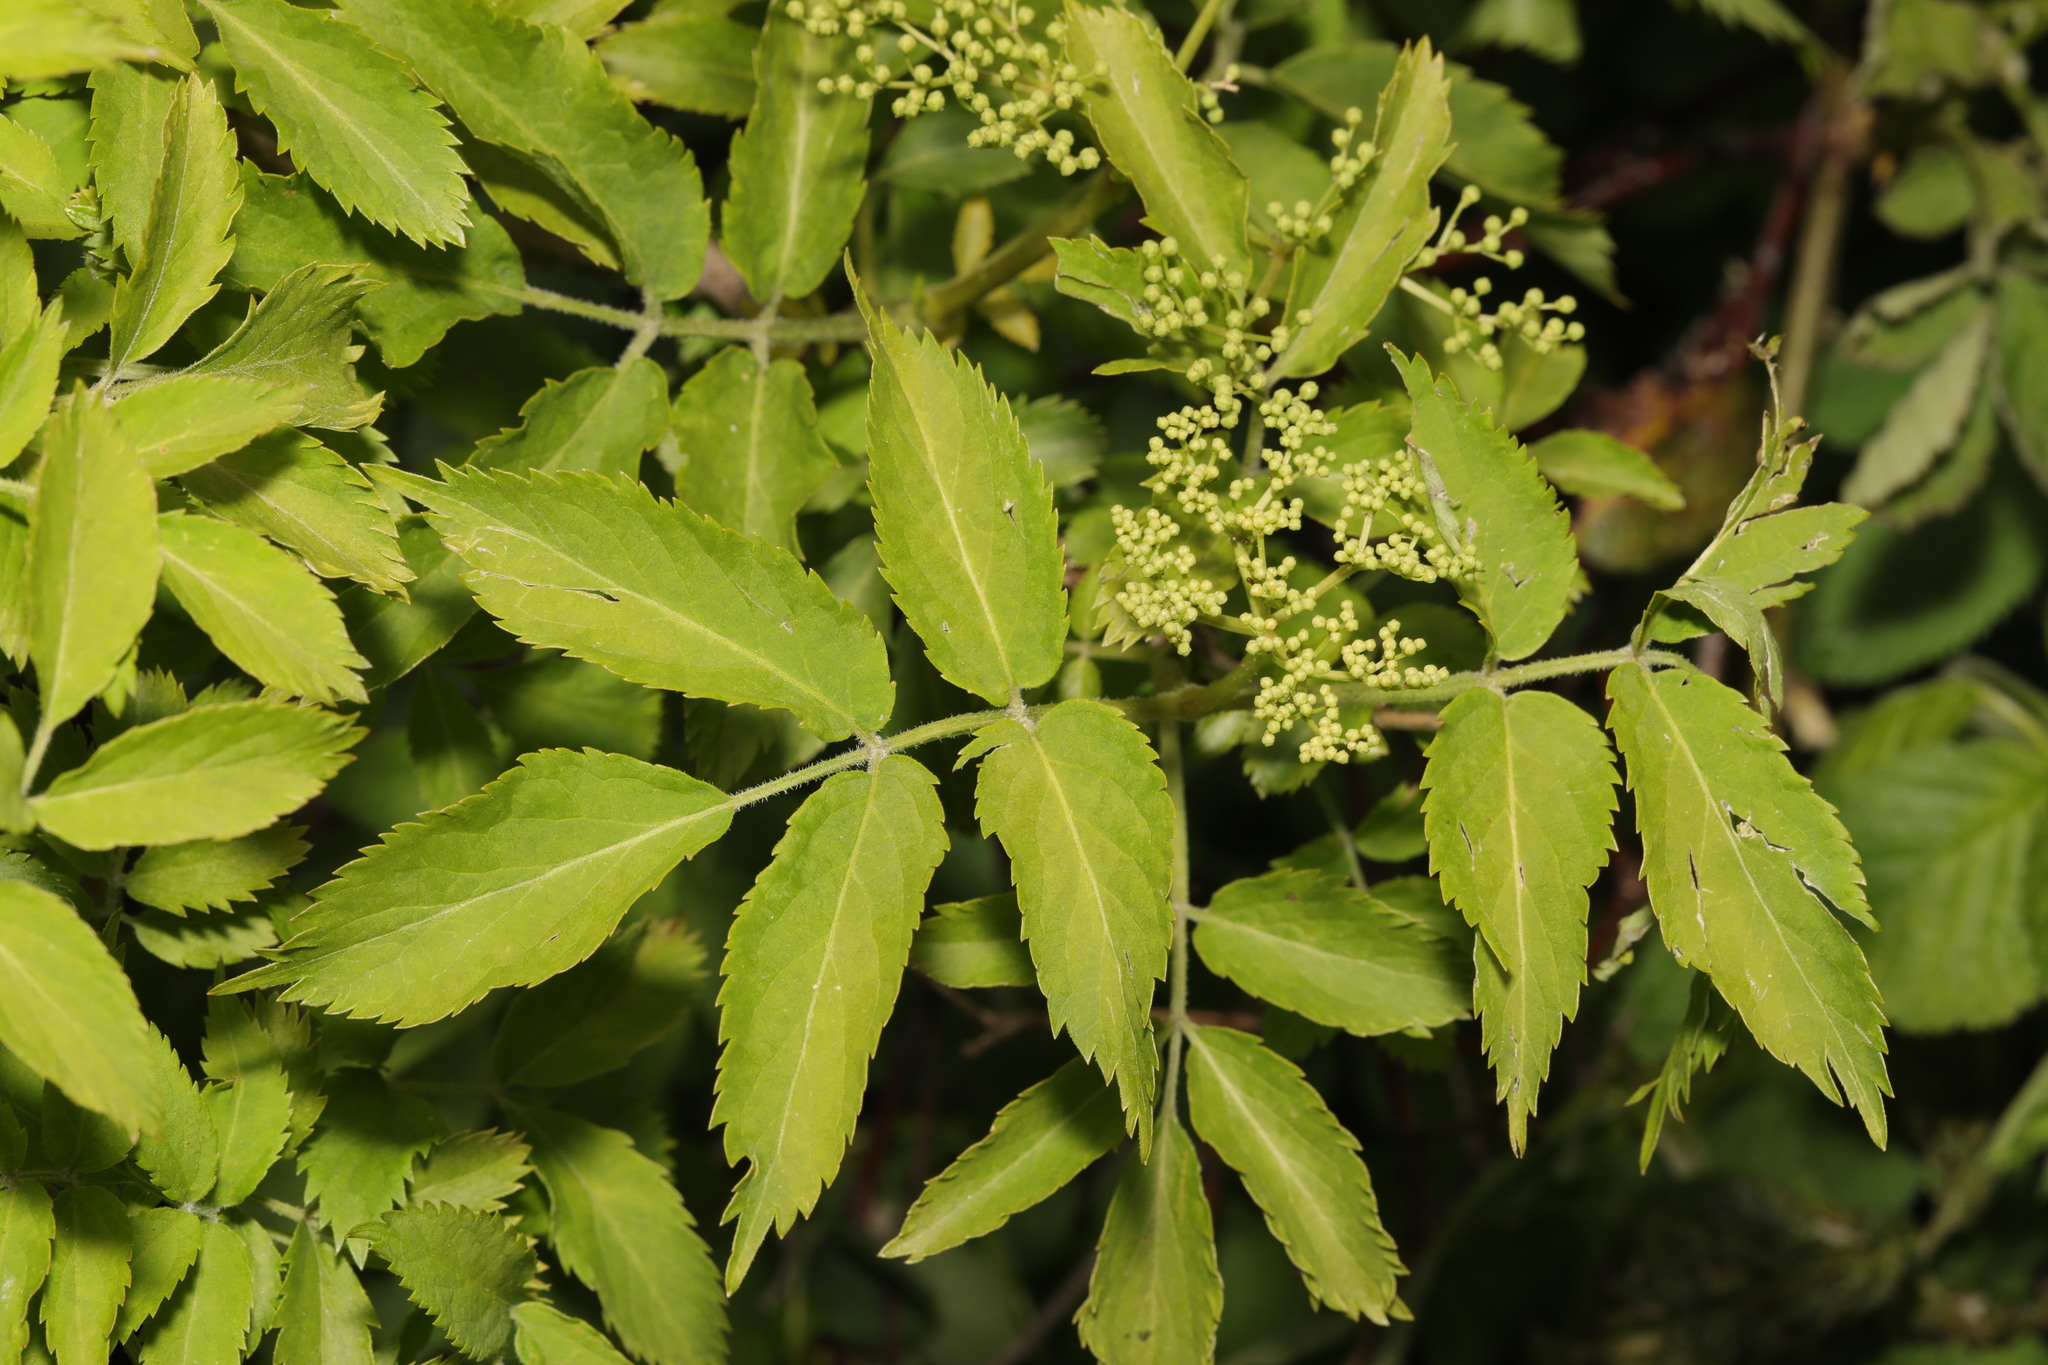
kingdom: Plantae
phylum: Tracheophyta
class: Magnoliopsida
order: Dipsacales
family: Viburnaceae
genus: Sambucus
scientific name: Sambucus nigra
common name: Elder
